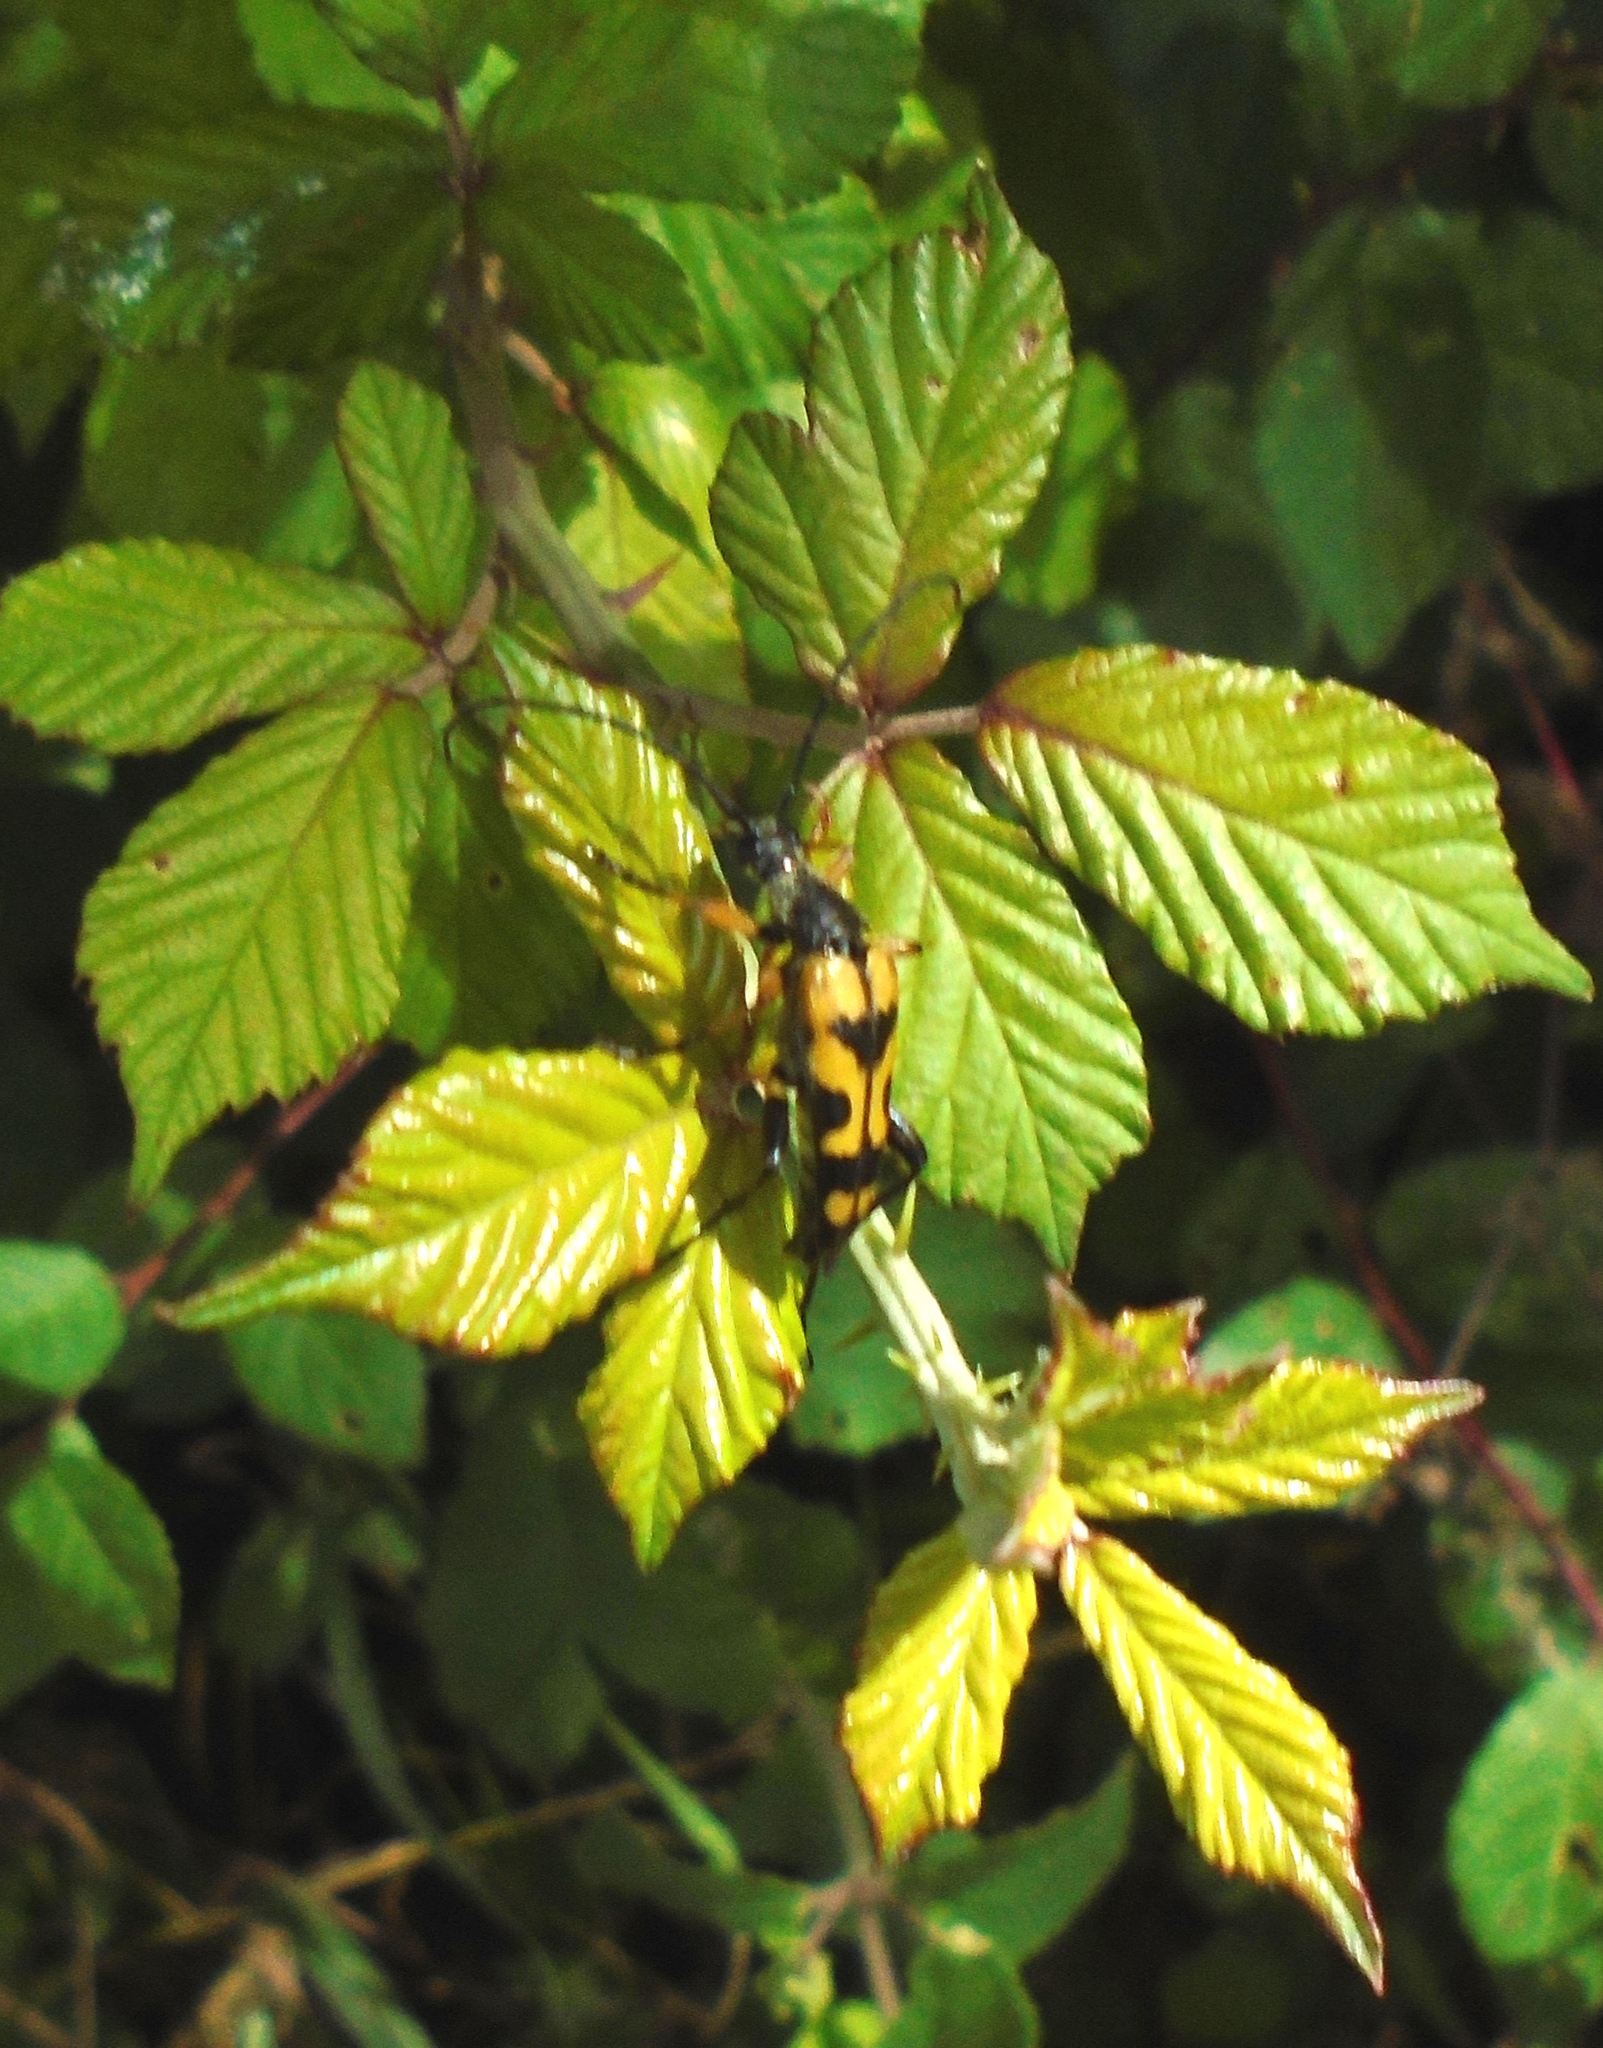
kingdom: Animalia
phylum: Arthropoda
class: Insecta
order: Coleoptera
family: Cerambycidae
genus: Rutpela
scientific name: Rutpela maculata
